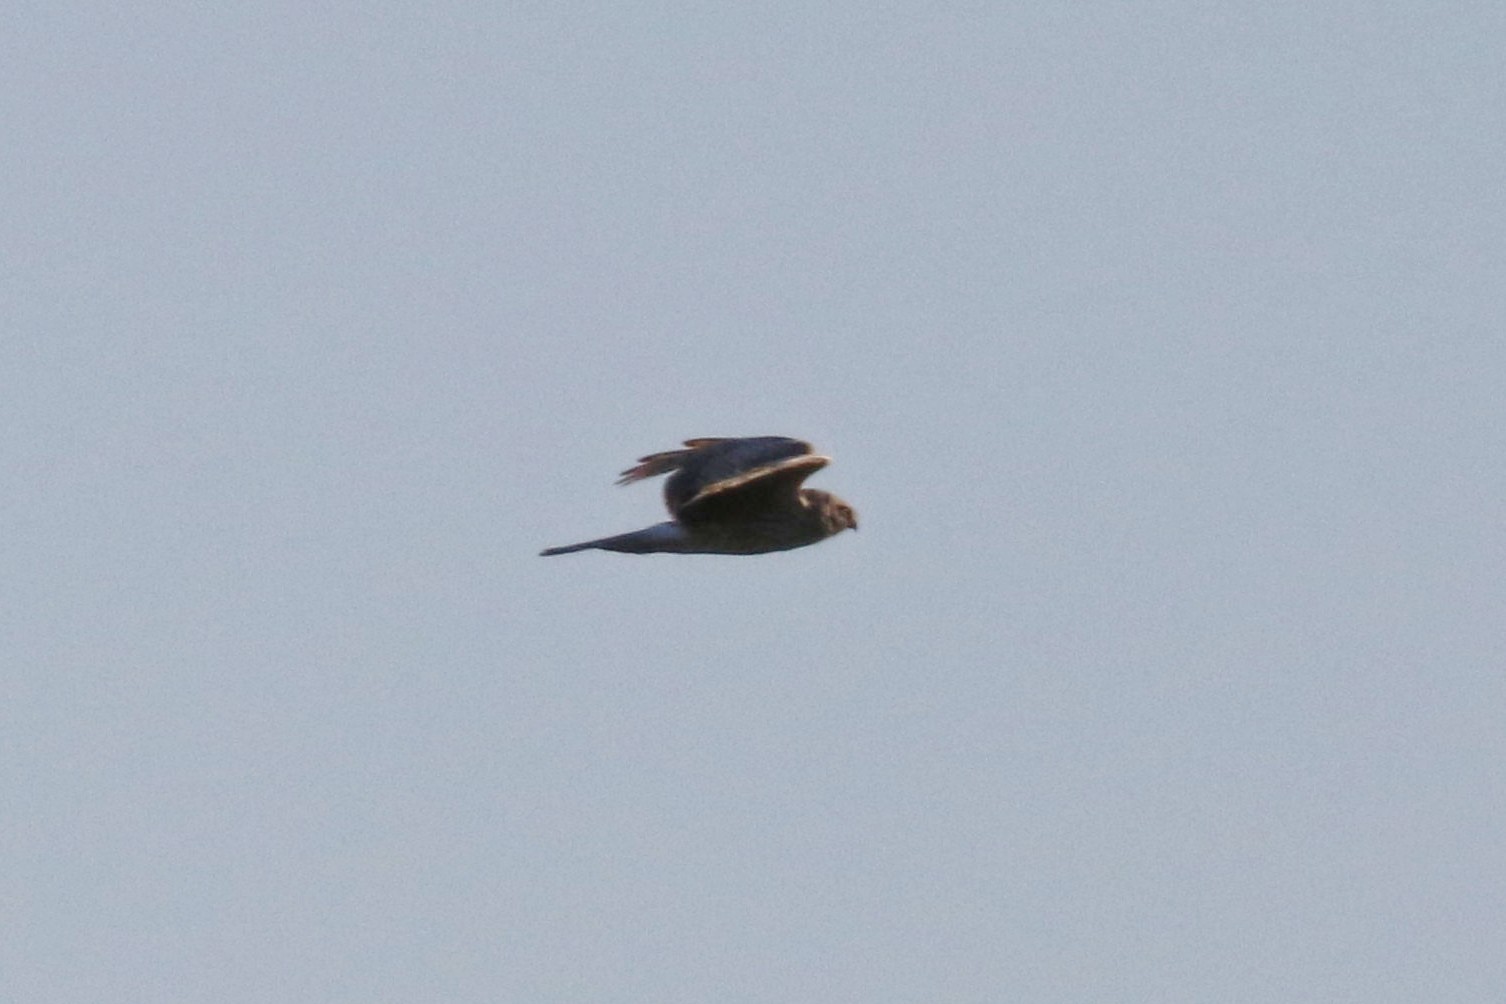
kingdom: Animalia
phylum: Chordata
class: Aves
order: Accipitriformes
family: Accipitridae
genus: Circus
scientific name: Circus cyaneus
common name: Hen harrier
